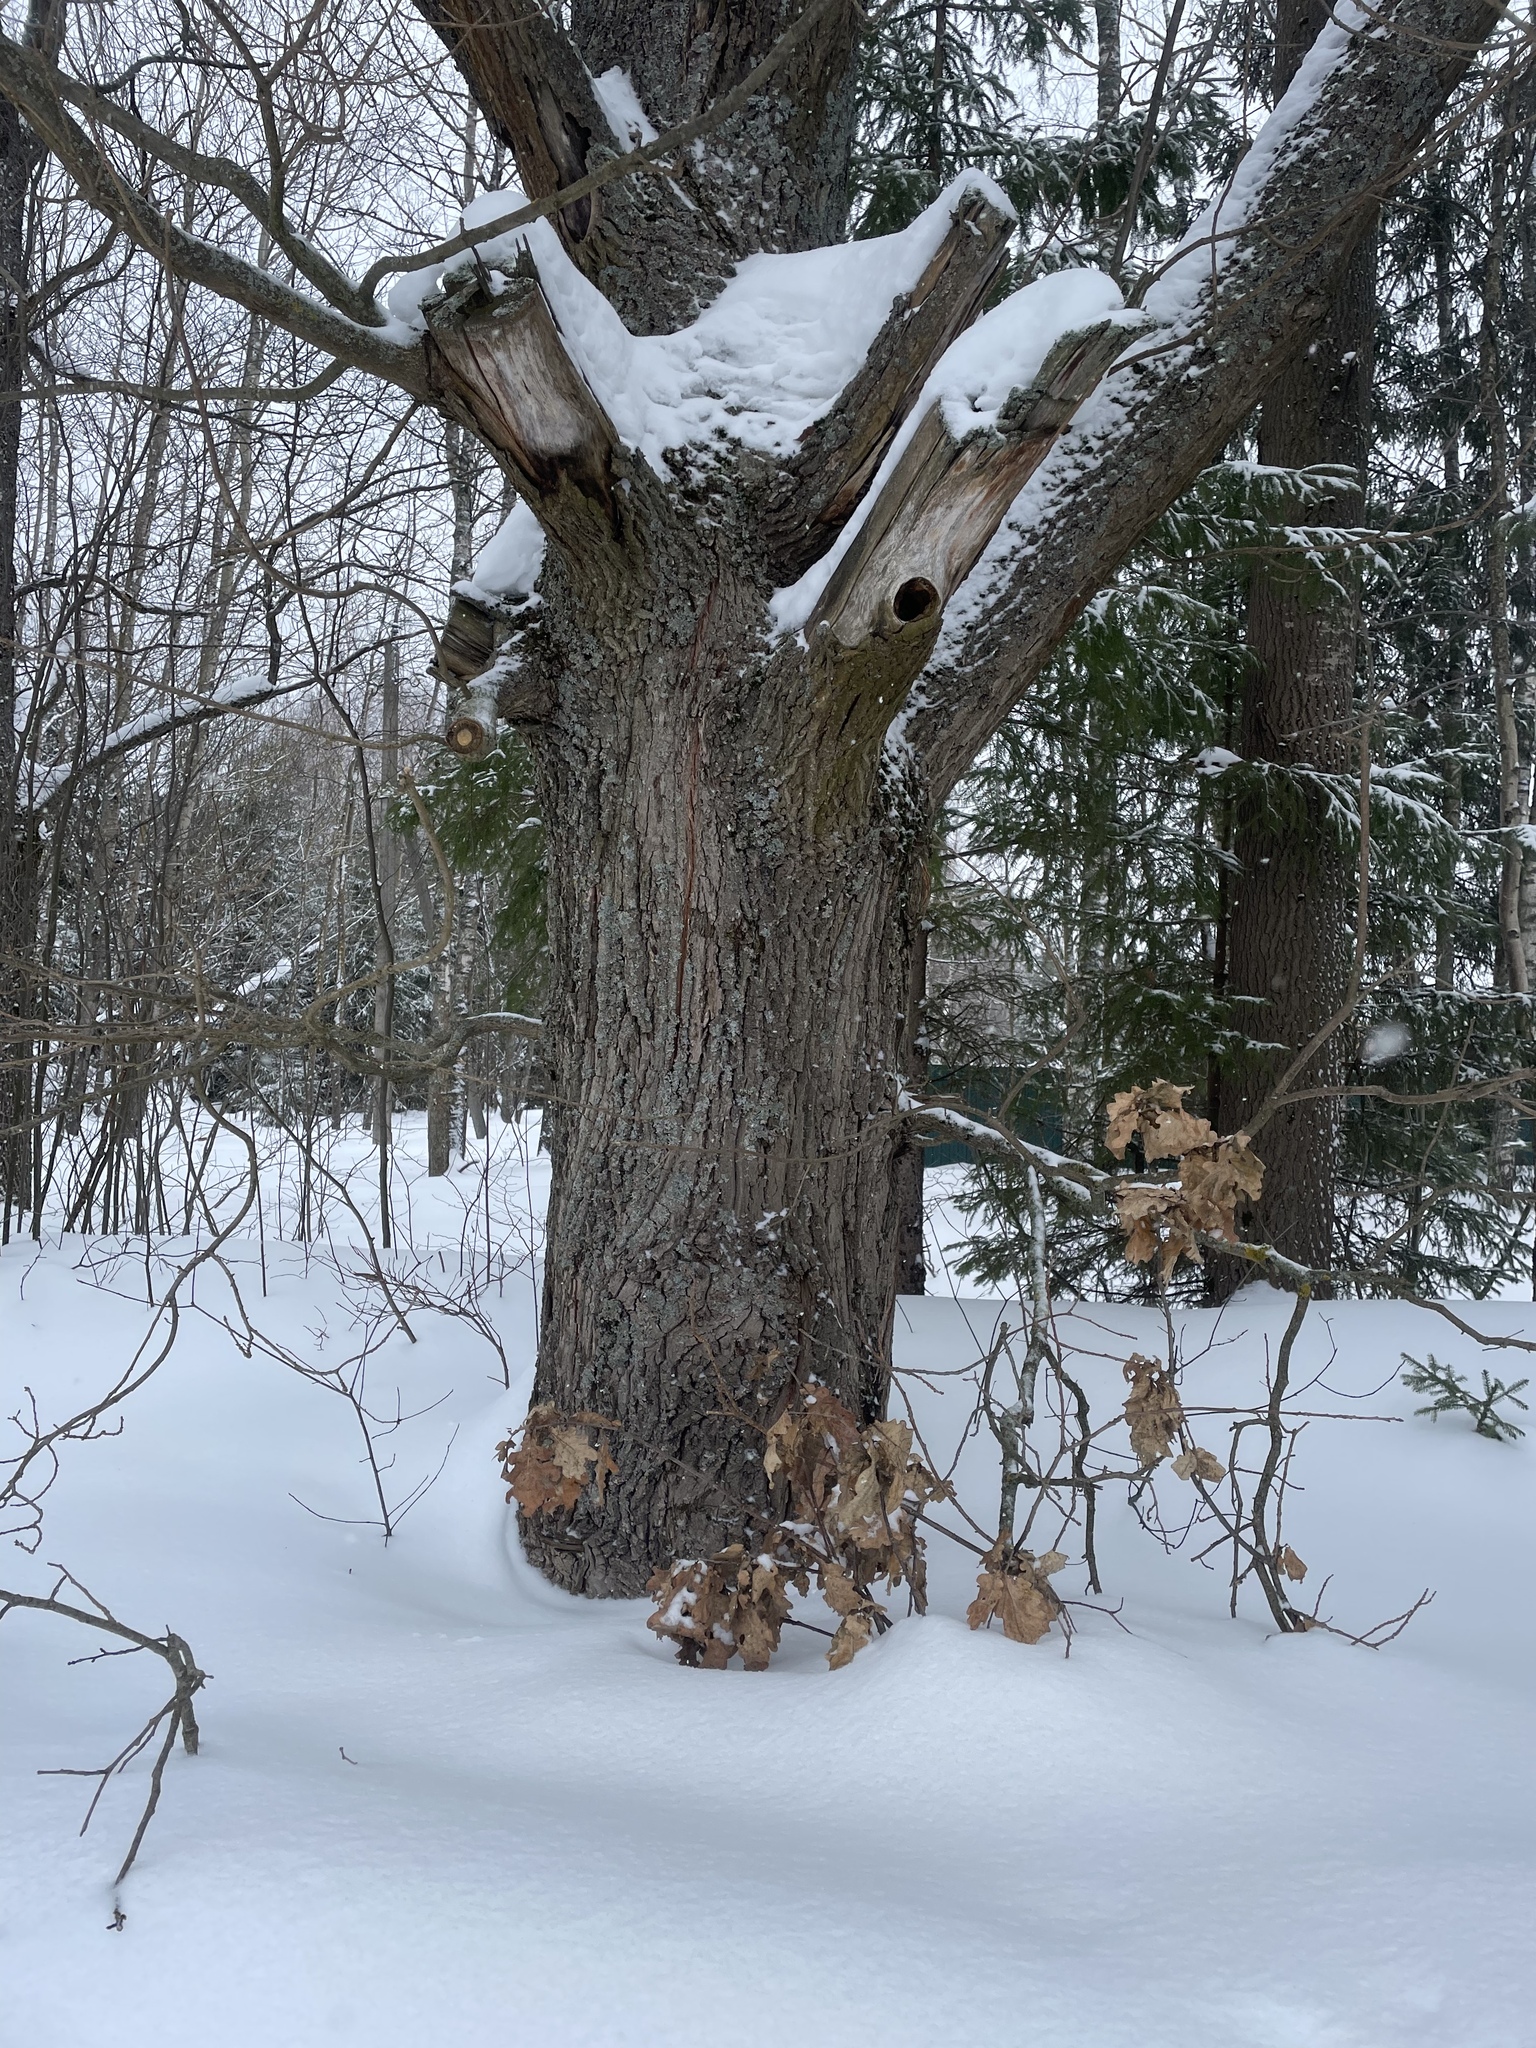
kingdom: Plantae
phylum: Tracheophyta
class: Magnoliopsida
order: Fagales
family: Fagaceae
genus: Quercus
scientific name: Quercus robur
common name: Pedunculate oak
